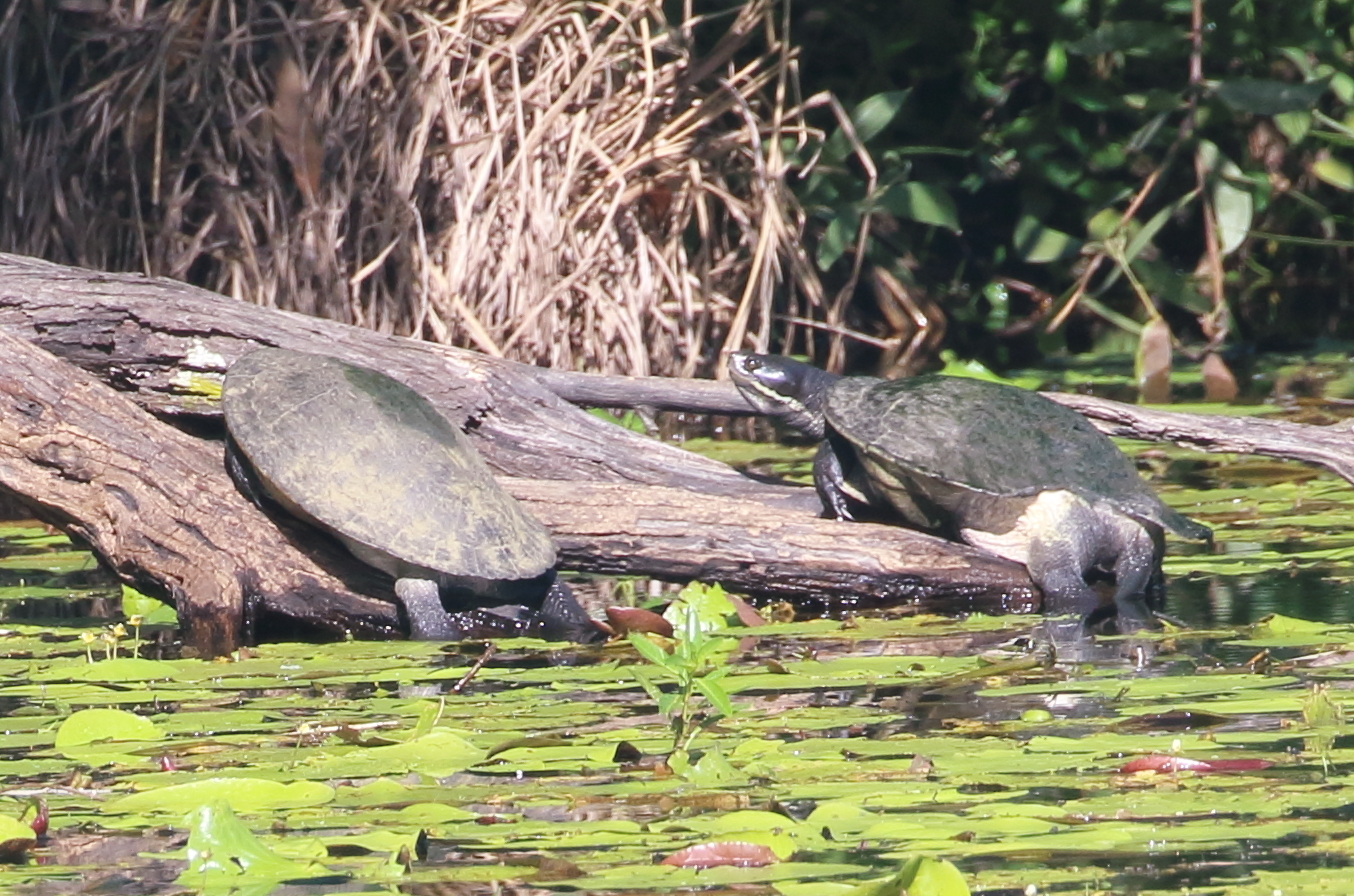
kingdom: Animalia
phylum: Chordata
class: Testudines
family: Chelidae
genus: Emydura
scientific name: Emydura macquarii
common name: Murray river turtle
